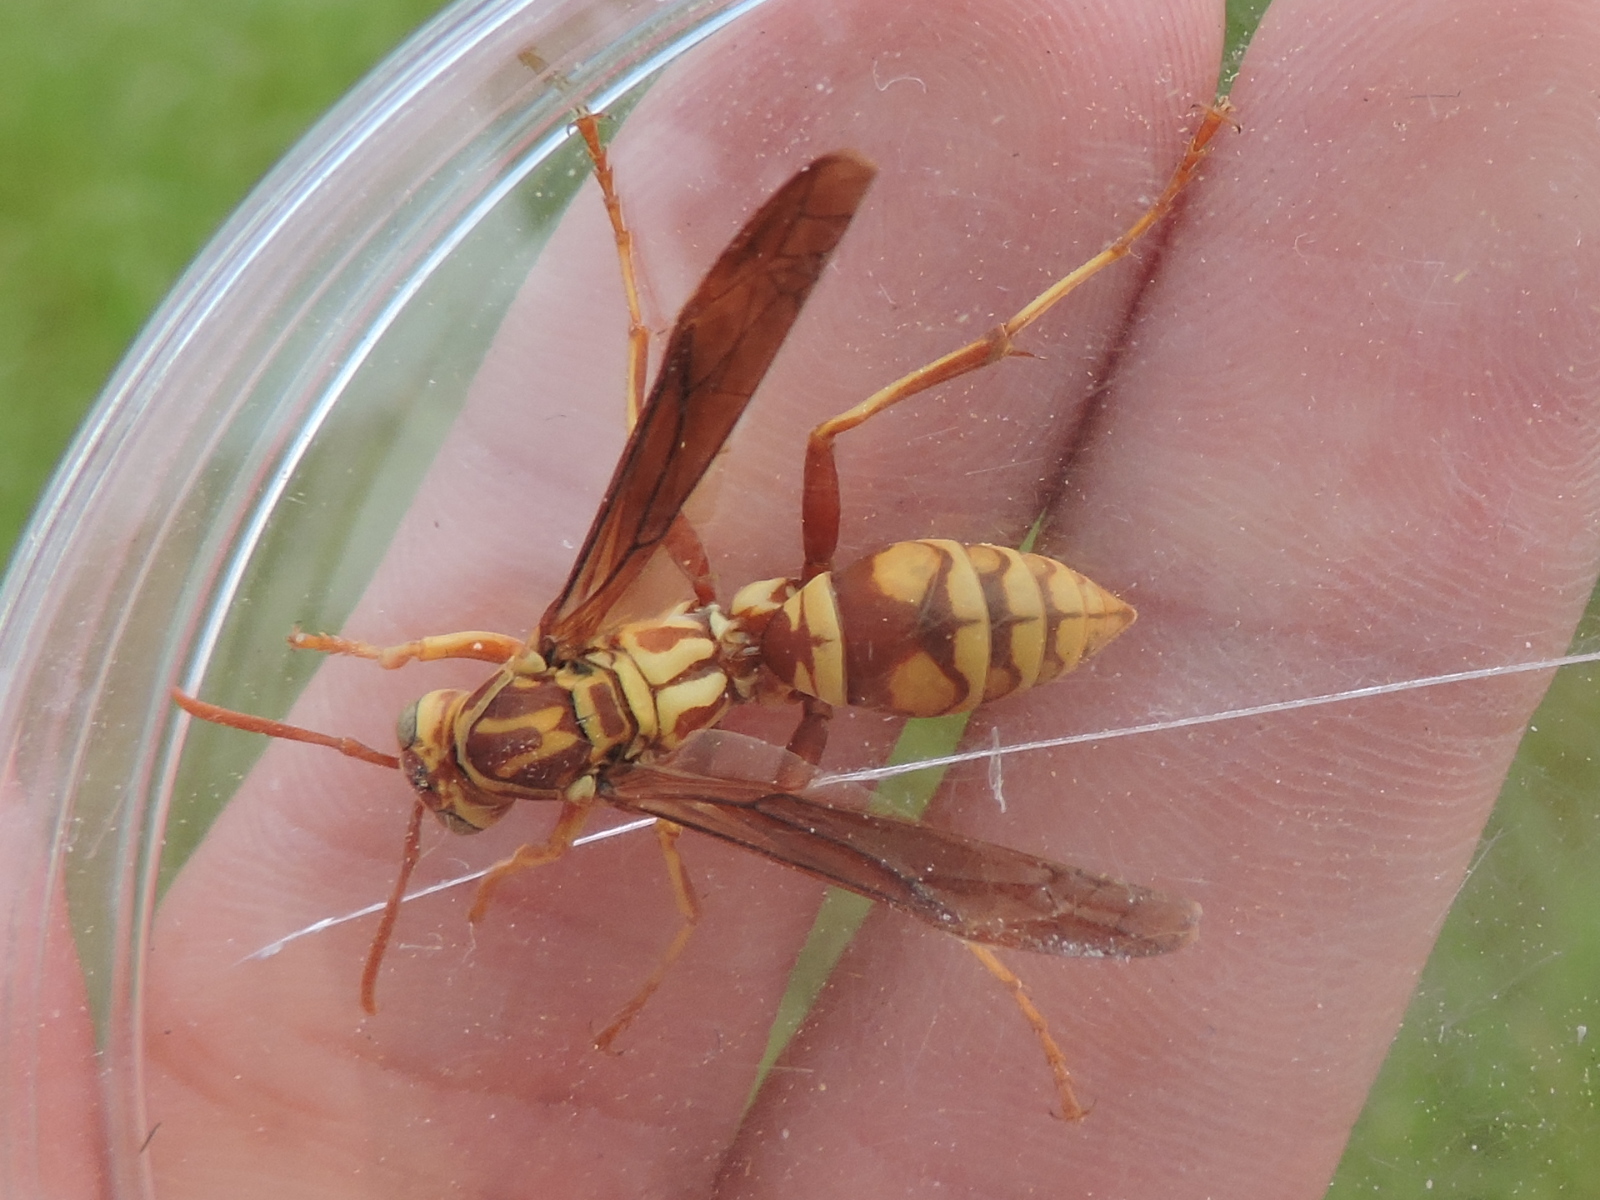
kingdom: Animalia
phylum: Arthropoda
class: Insecta
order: Hymenoptera
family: Eumenidae
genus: Polistes
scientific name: Polistes apachus
